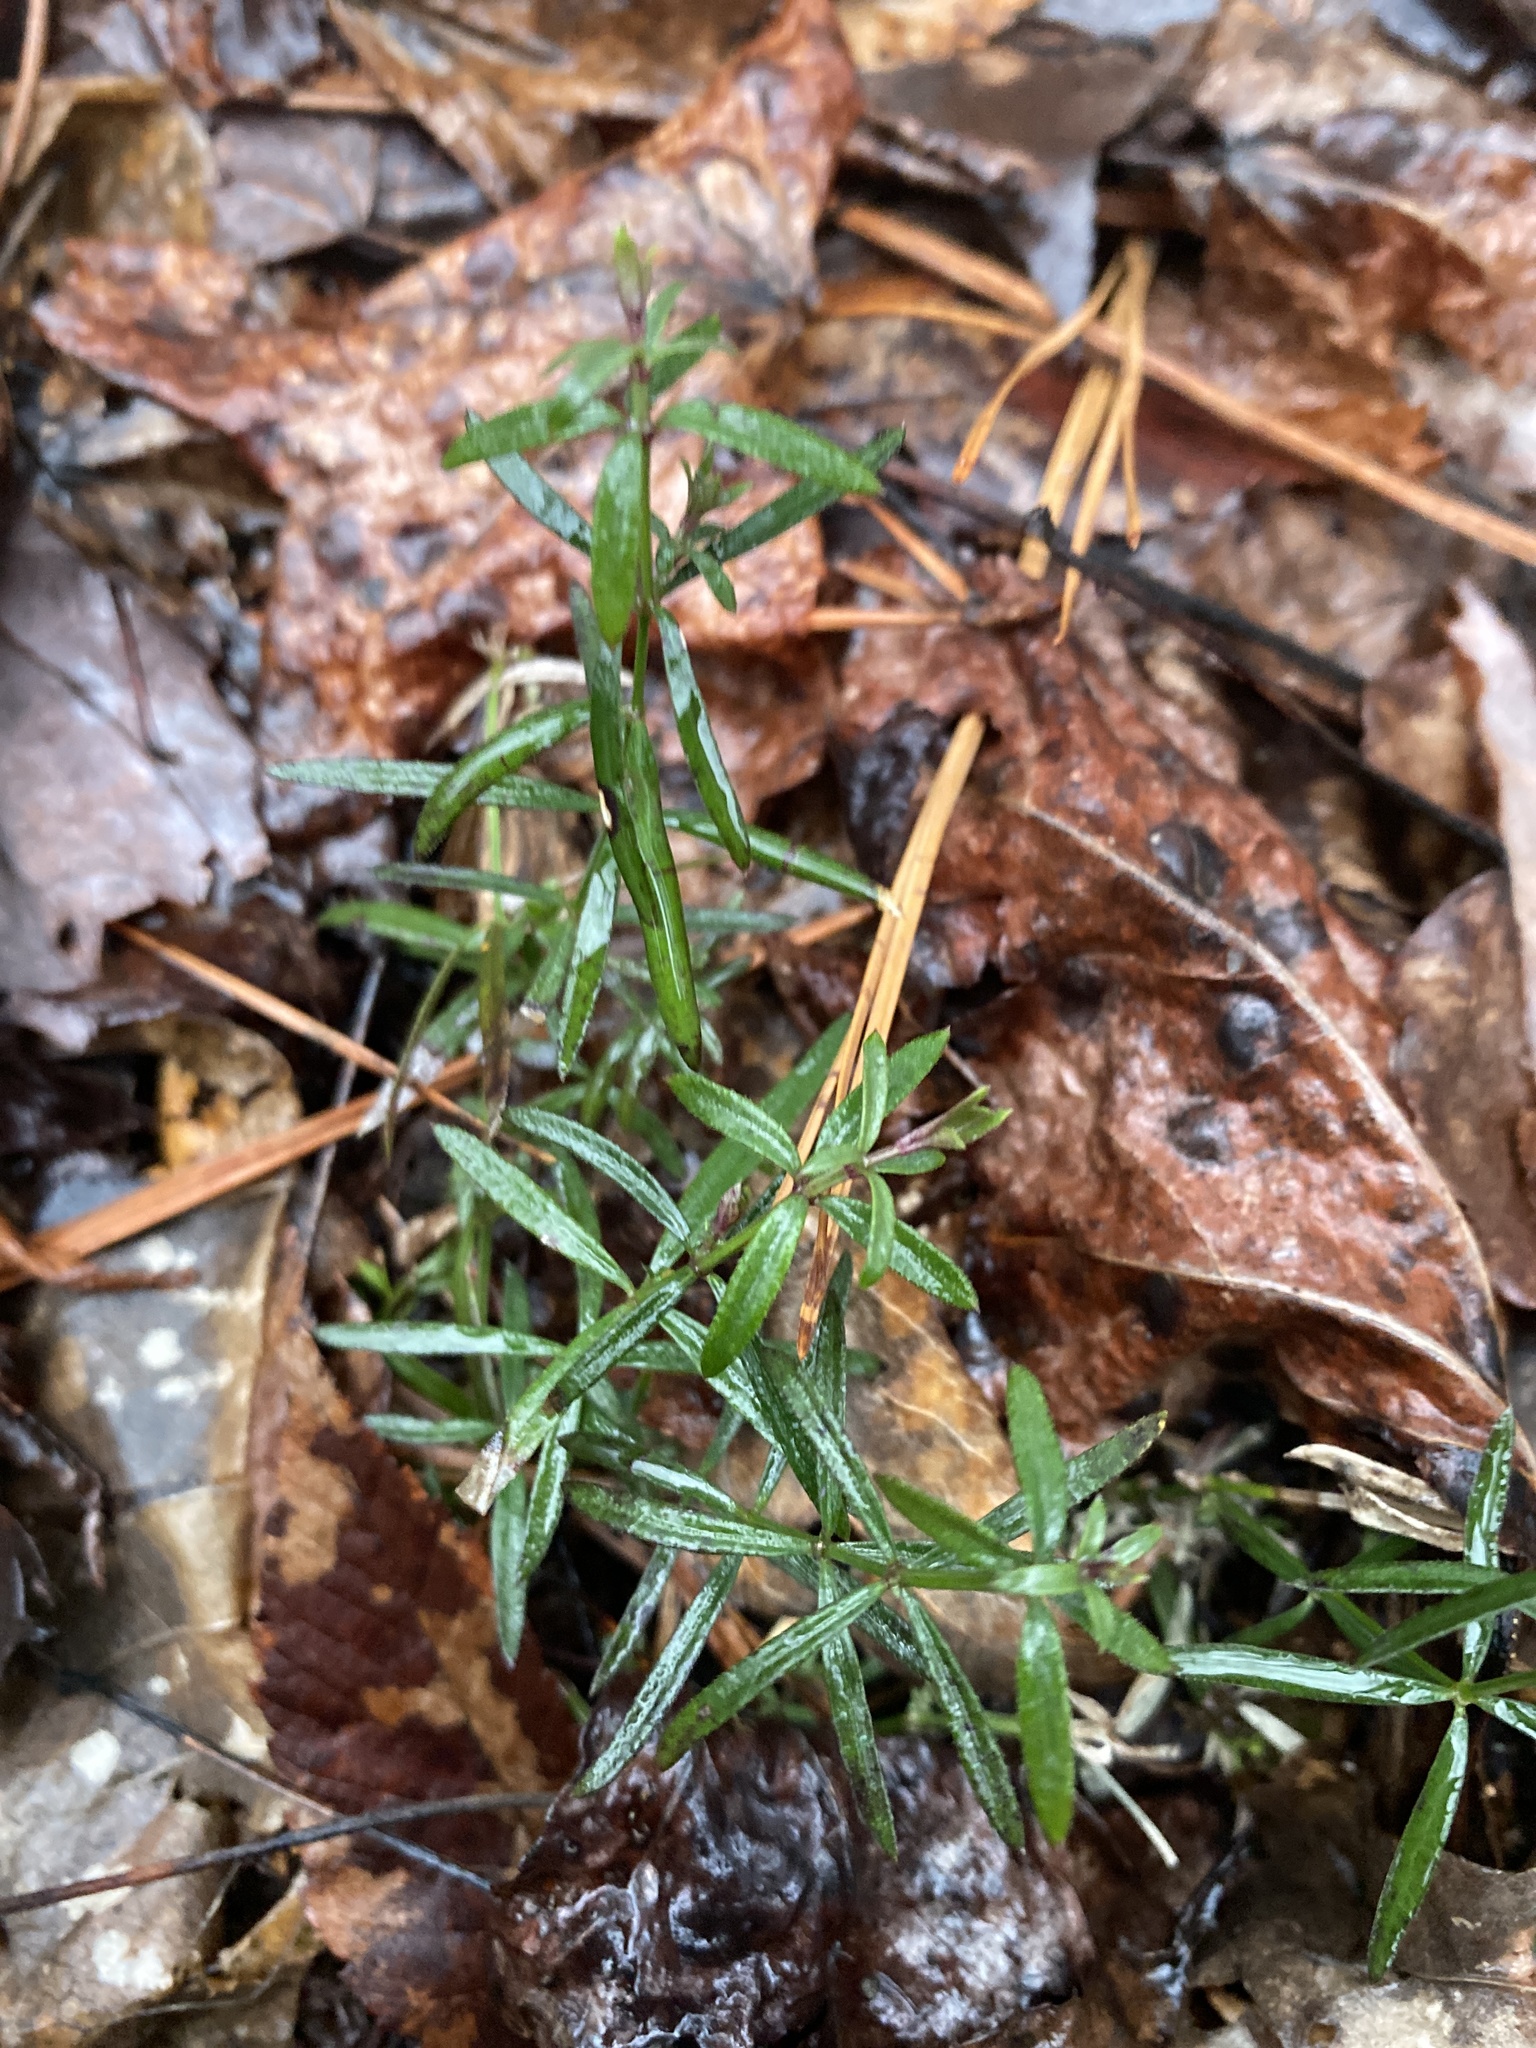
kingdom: Plantae
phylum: Tracheophyta
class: Magnoliopsida
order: Gentianales
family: Rubiaceae
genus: Galium
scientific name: Galium uniflorum
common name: One-flower bedstraw
